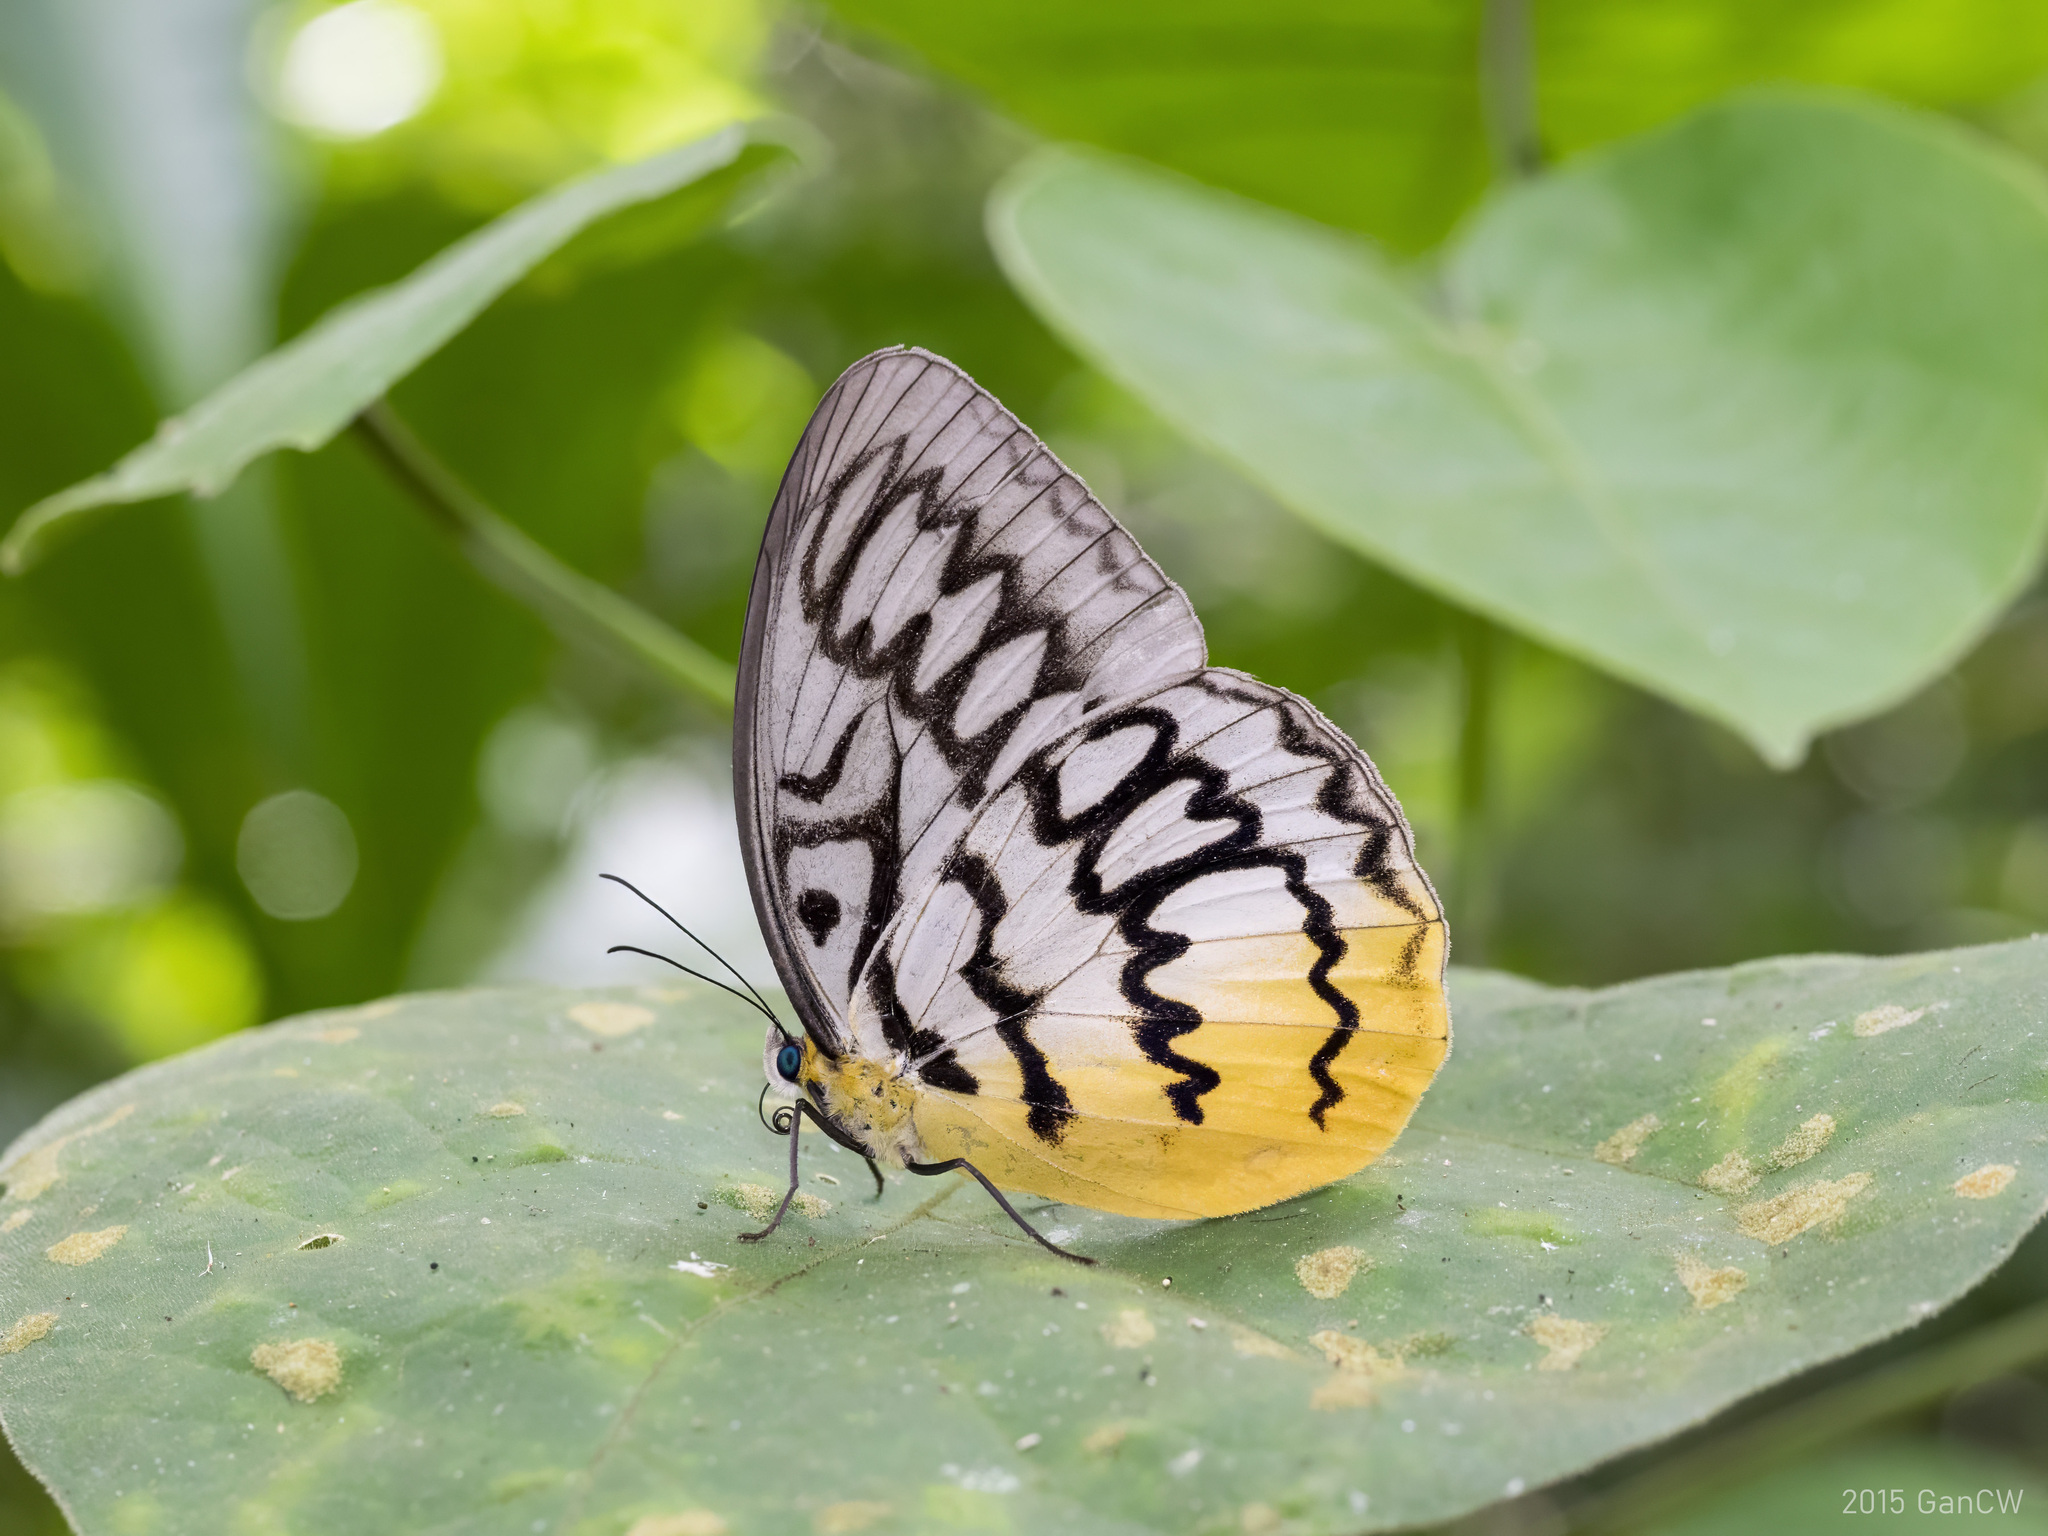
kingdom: Animalia
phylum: Arthropoda
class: Insecta
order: Lepidoptera
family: Nymphalidae
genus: Faunis
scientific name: Faunis Melanocyma faunula
